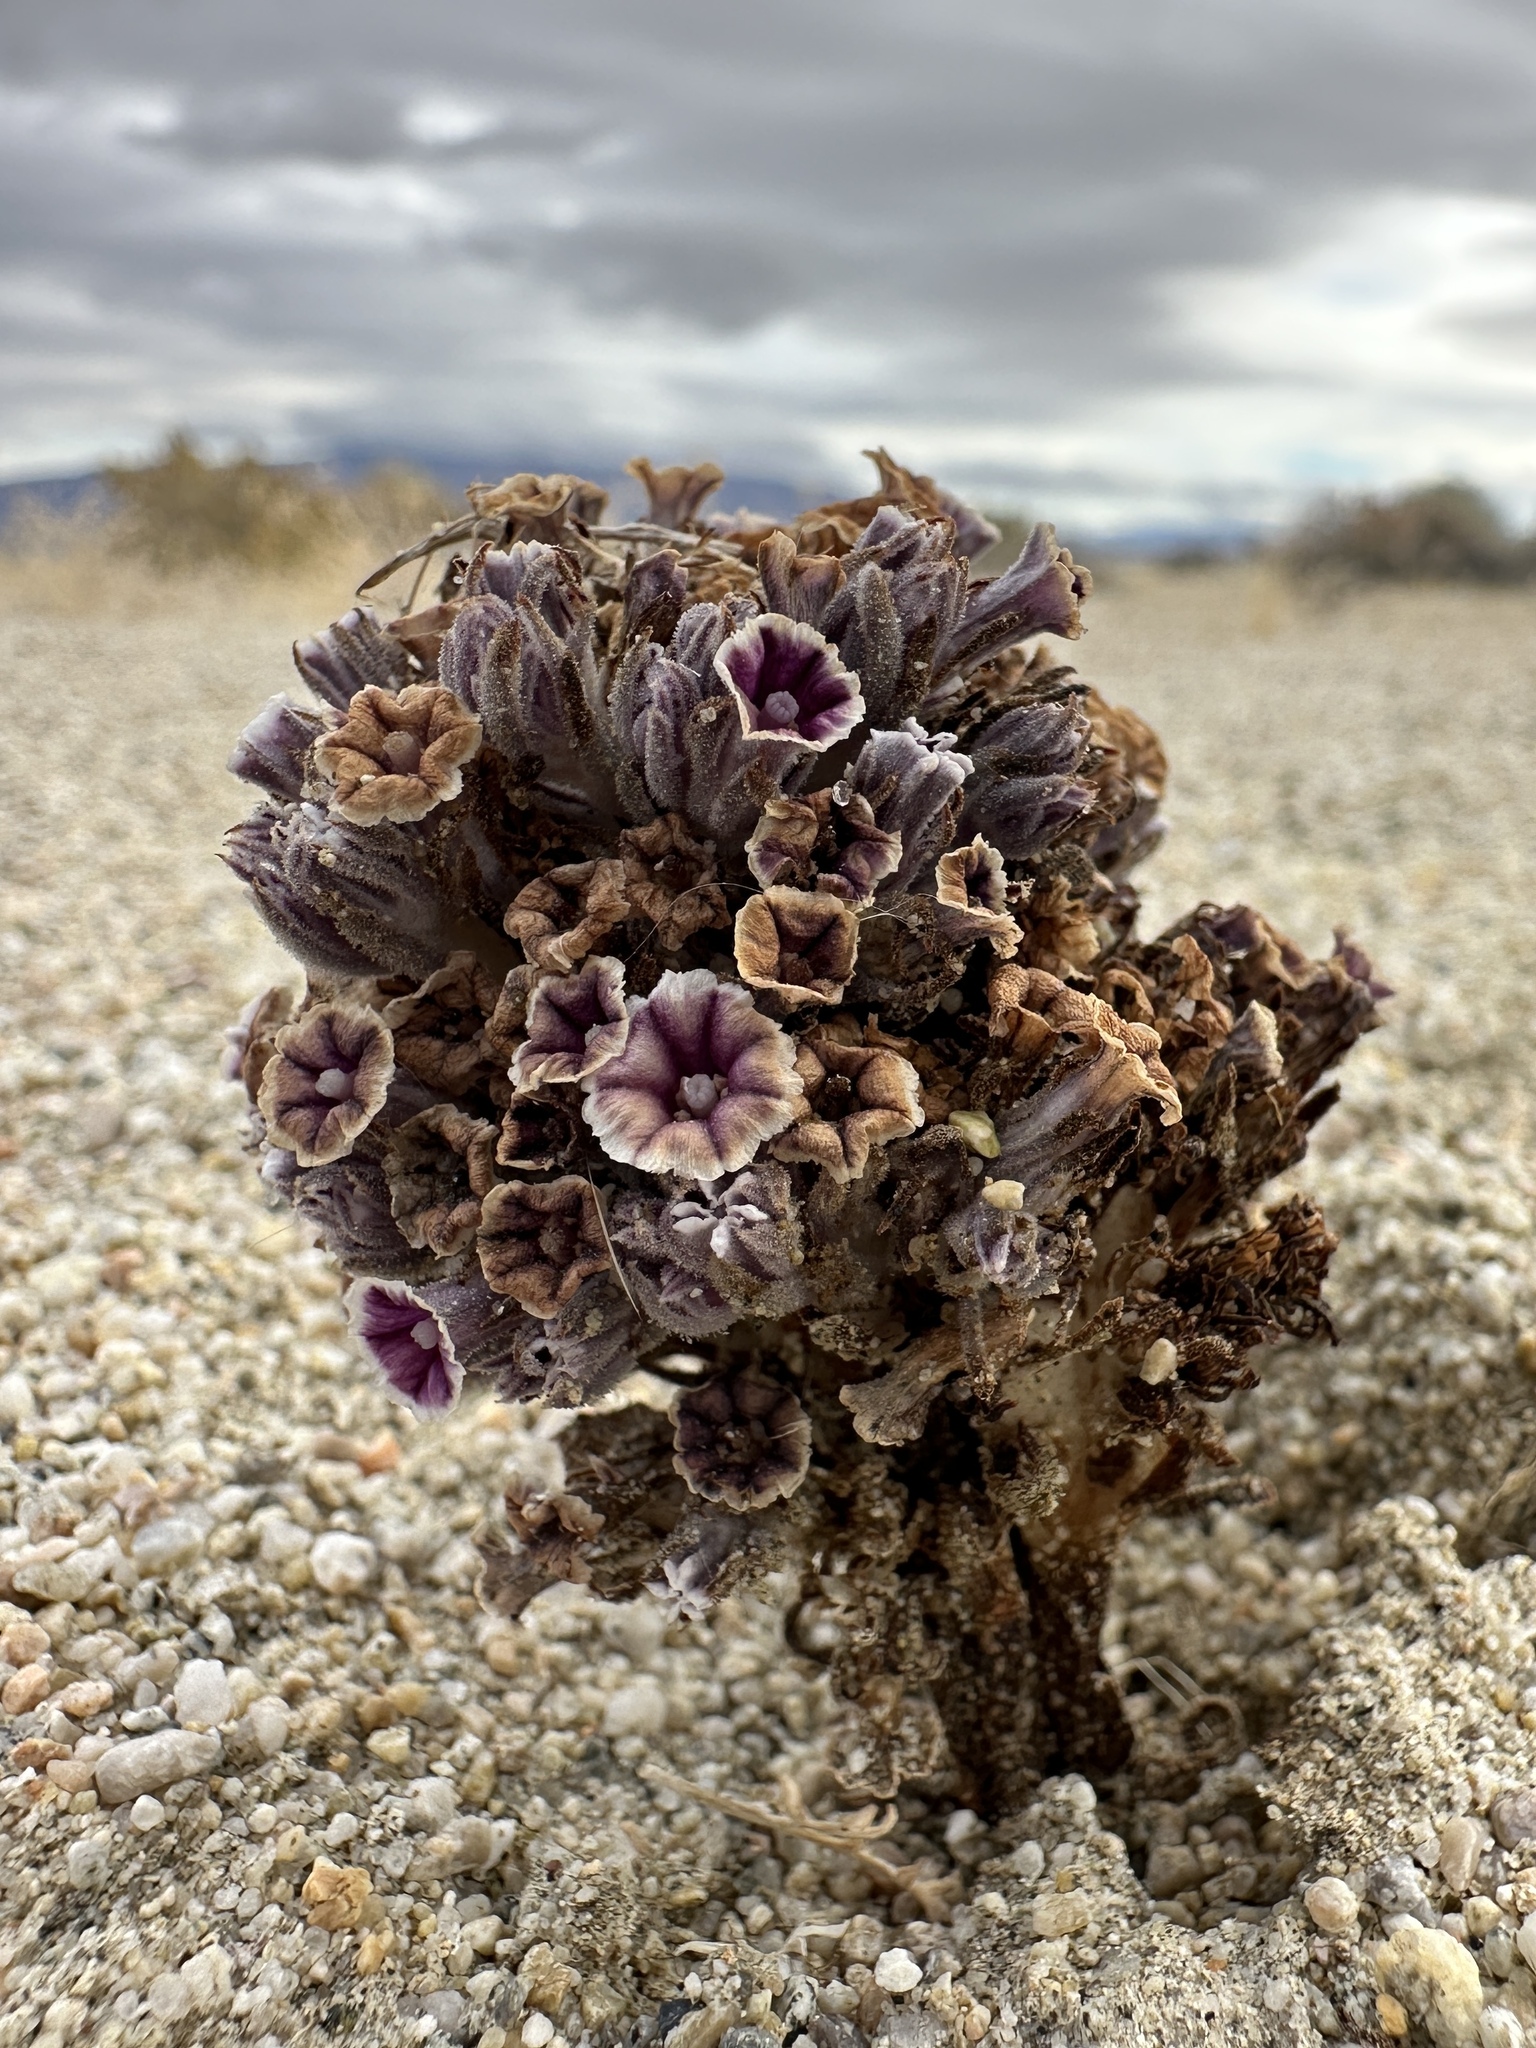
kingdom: Plantae
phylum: Tracheophyta
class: Magnoliopsida
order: Boraginales
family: Lennoaceae
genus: Pholisma
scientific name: Pholisma arenarium
